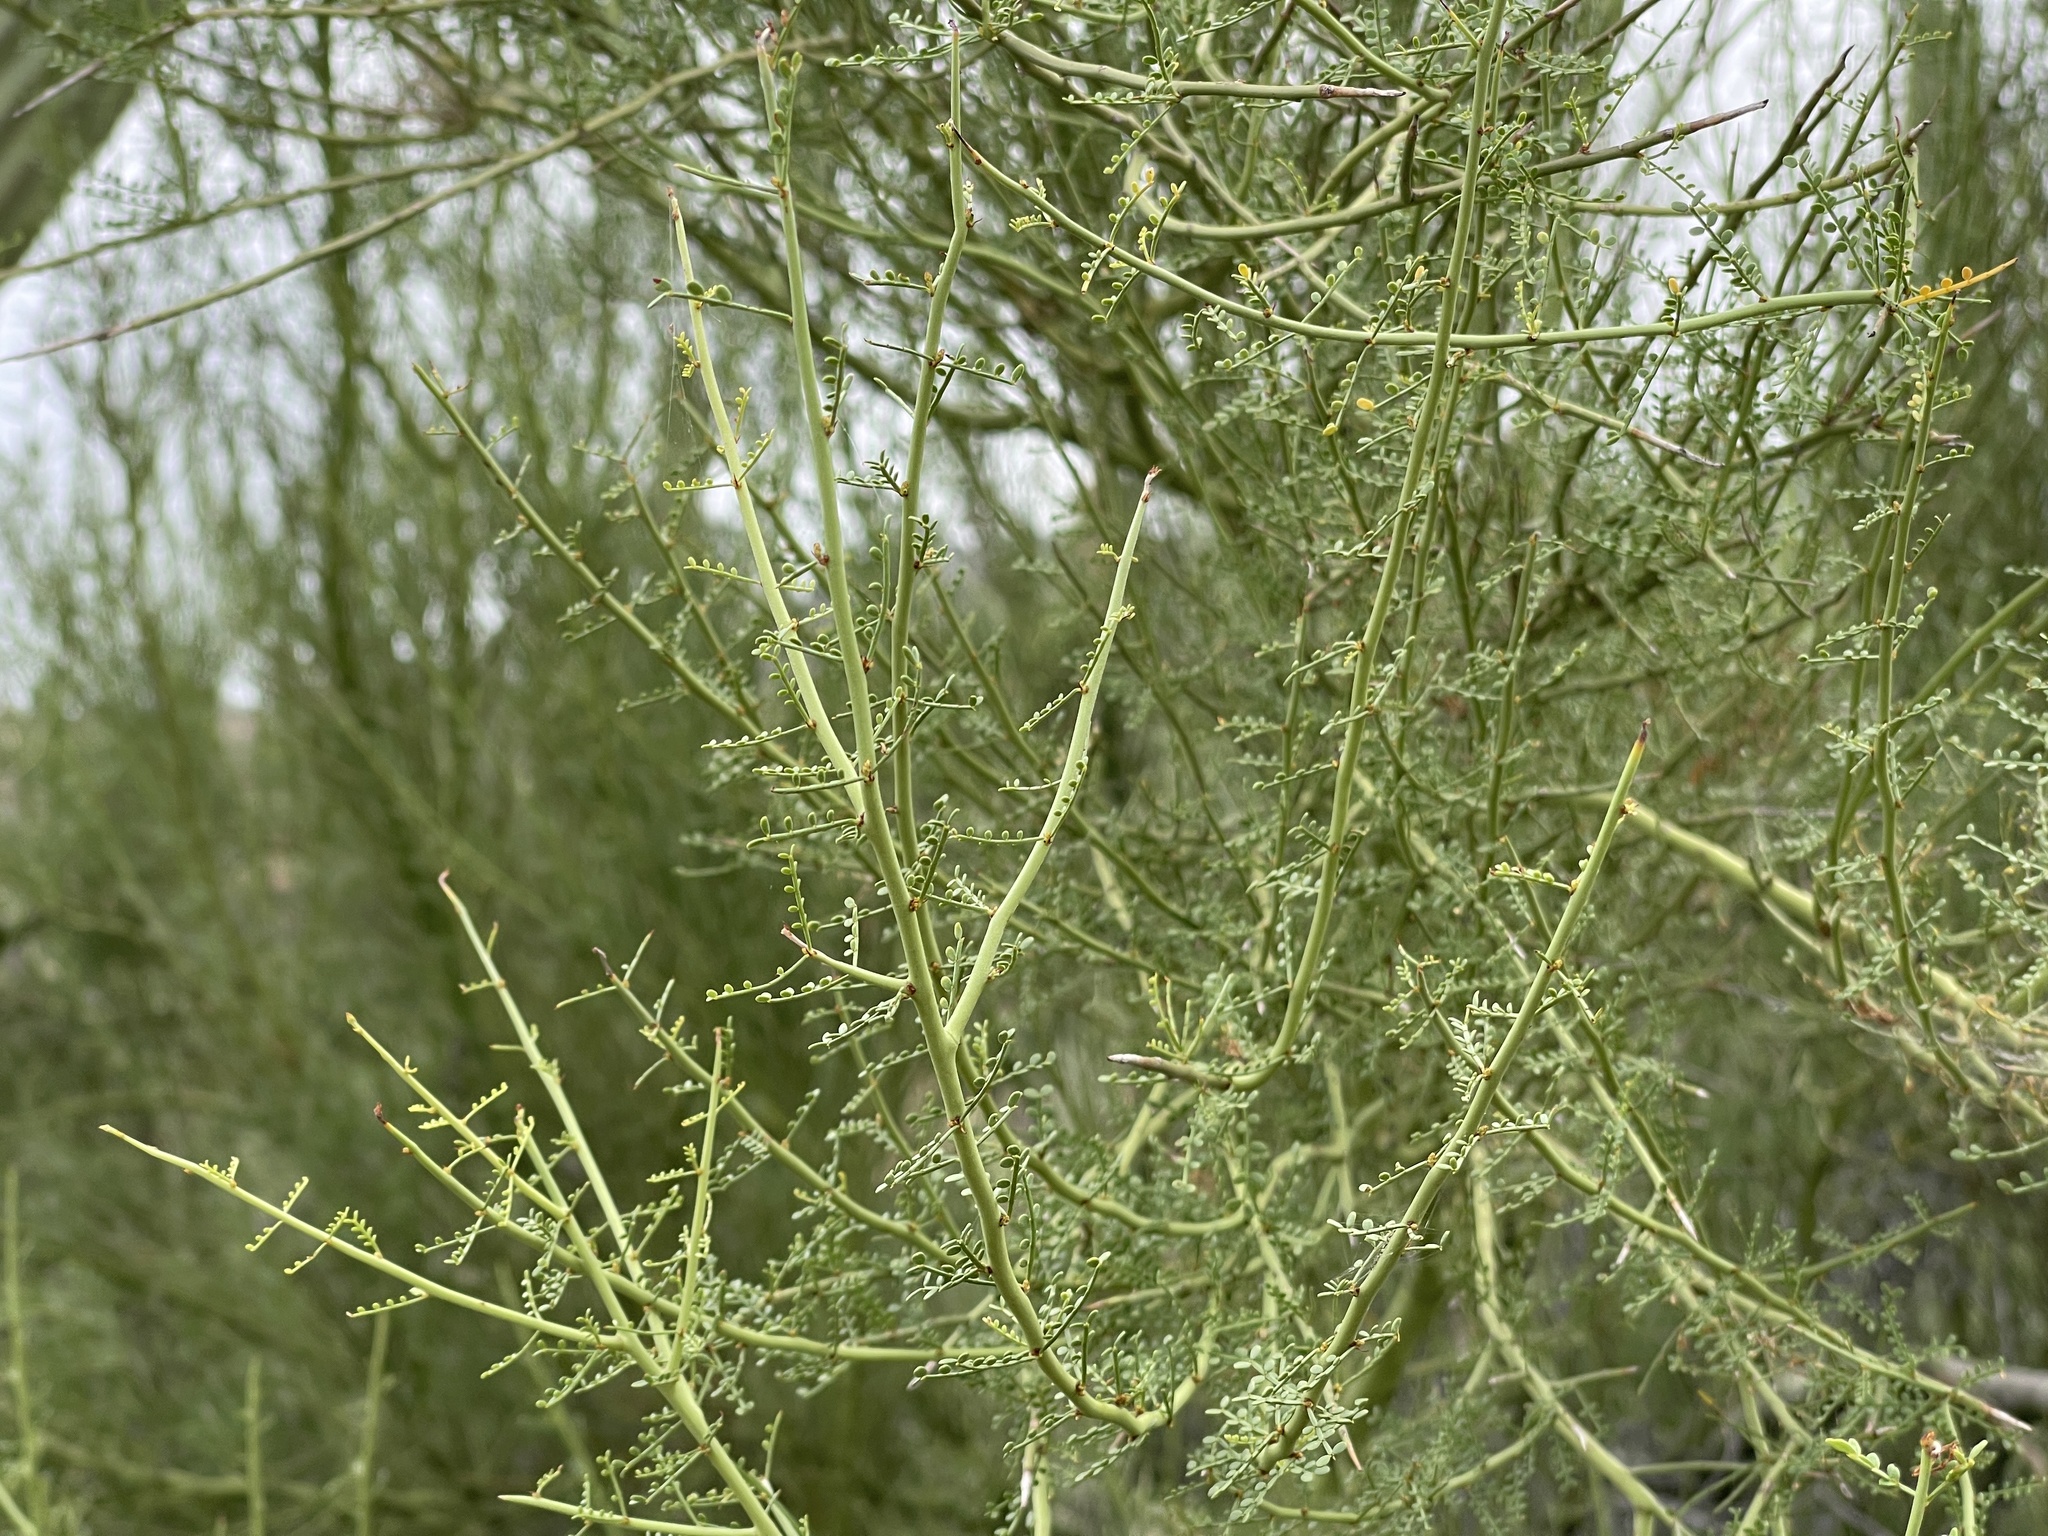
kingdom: Plantae
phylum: Tracheophyta
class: Magnoliopsida
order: Fabales
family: Fabaceae
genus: Parkinsonia
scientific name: Parkinsonia microphylla
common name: Yellow paloverde
